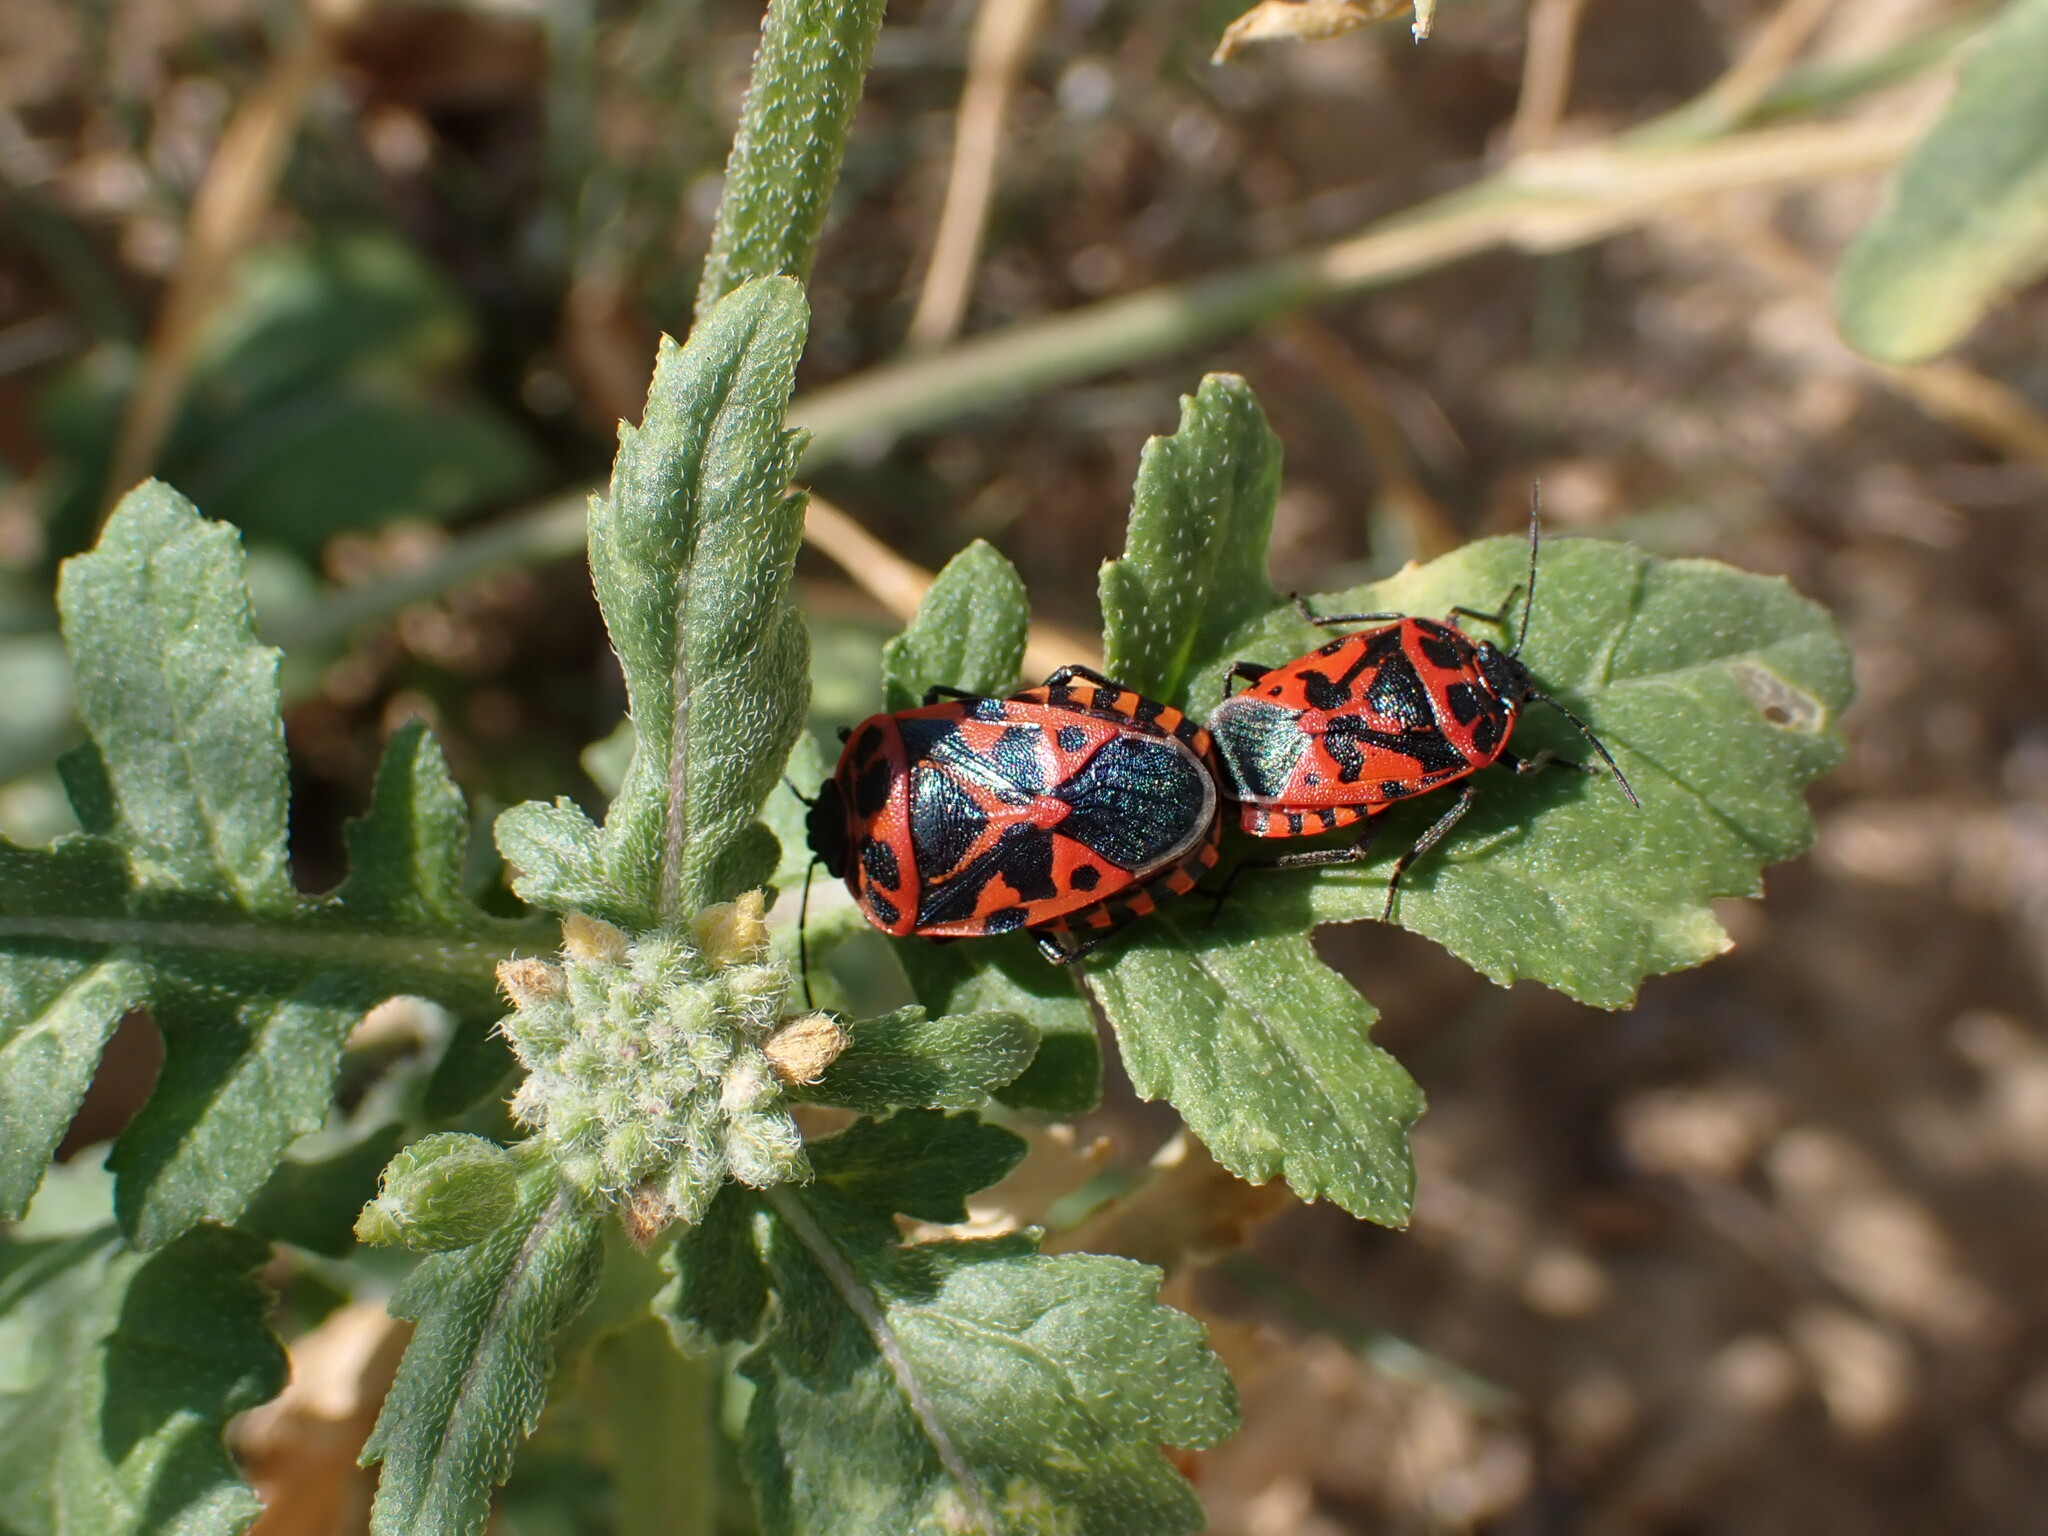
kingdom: Animalia
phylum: Arthropoda
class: Insecta
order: Hemiptera
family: Pentatomidae
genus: Eurydema
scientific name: Eurydema ventralis
